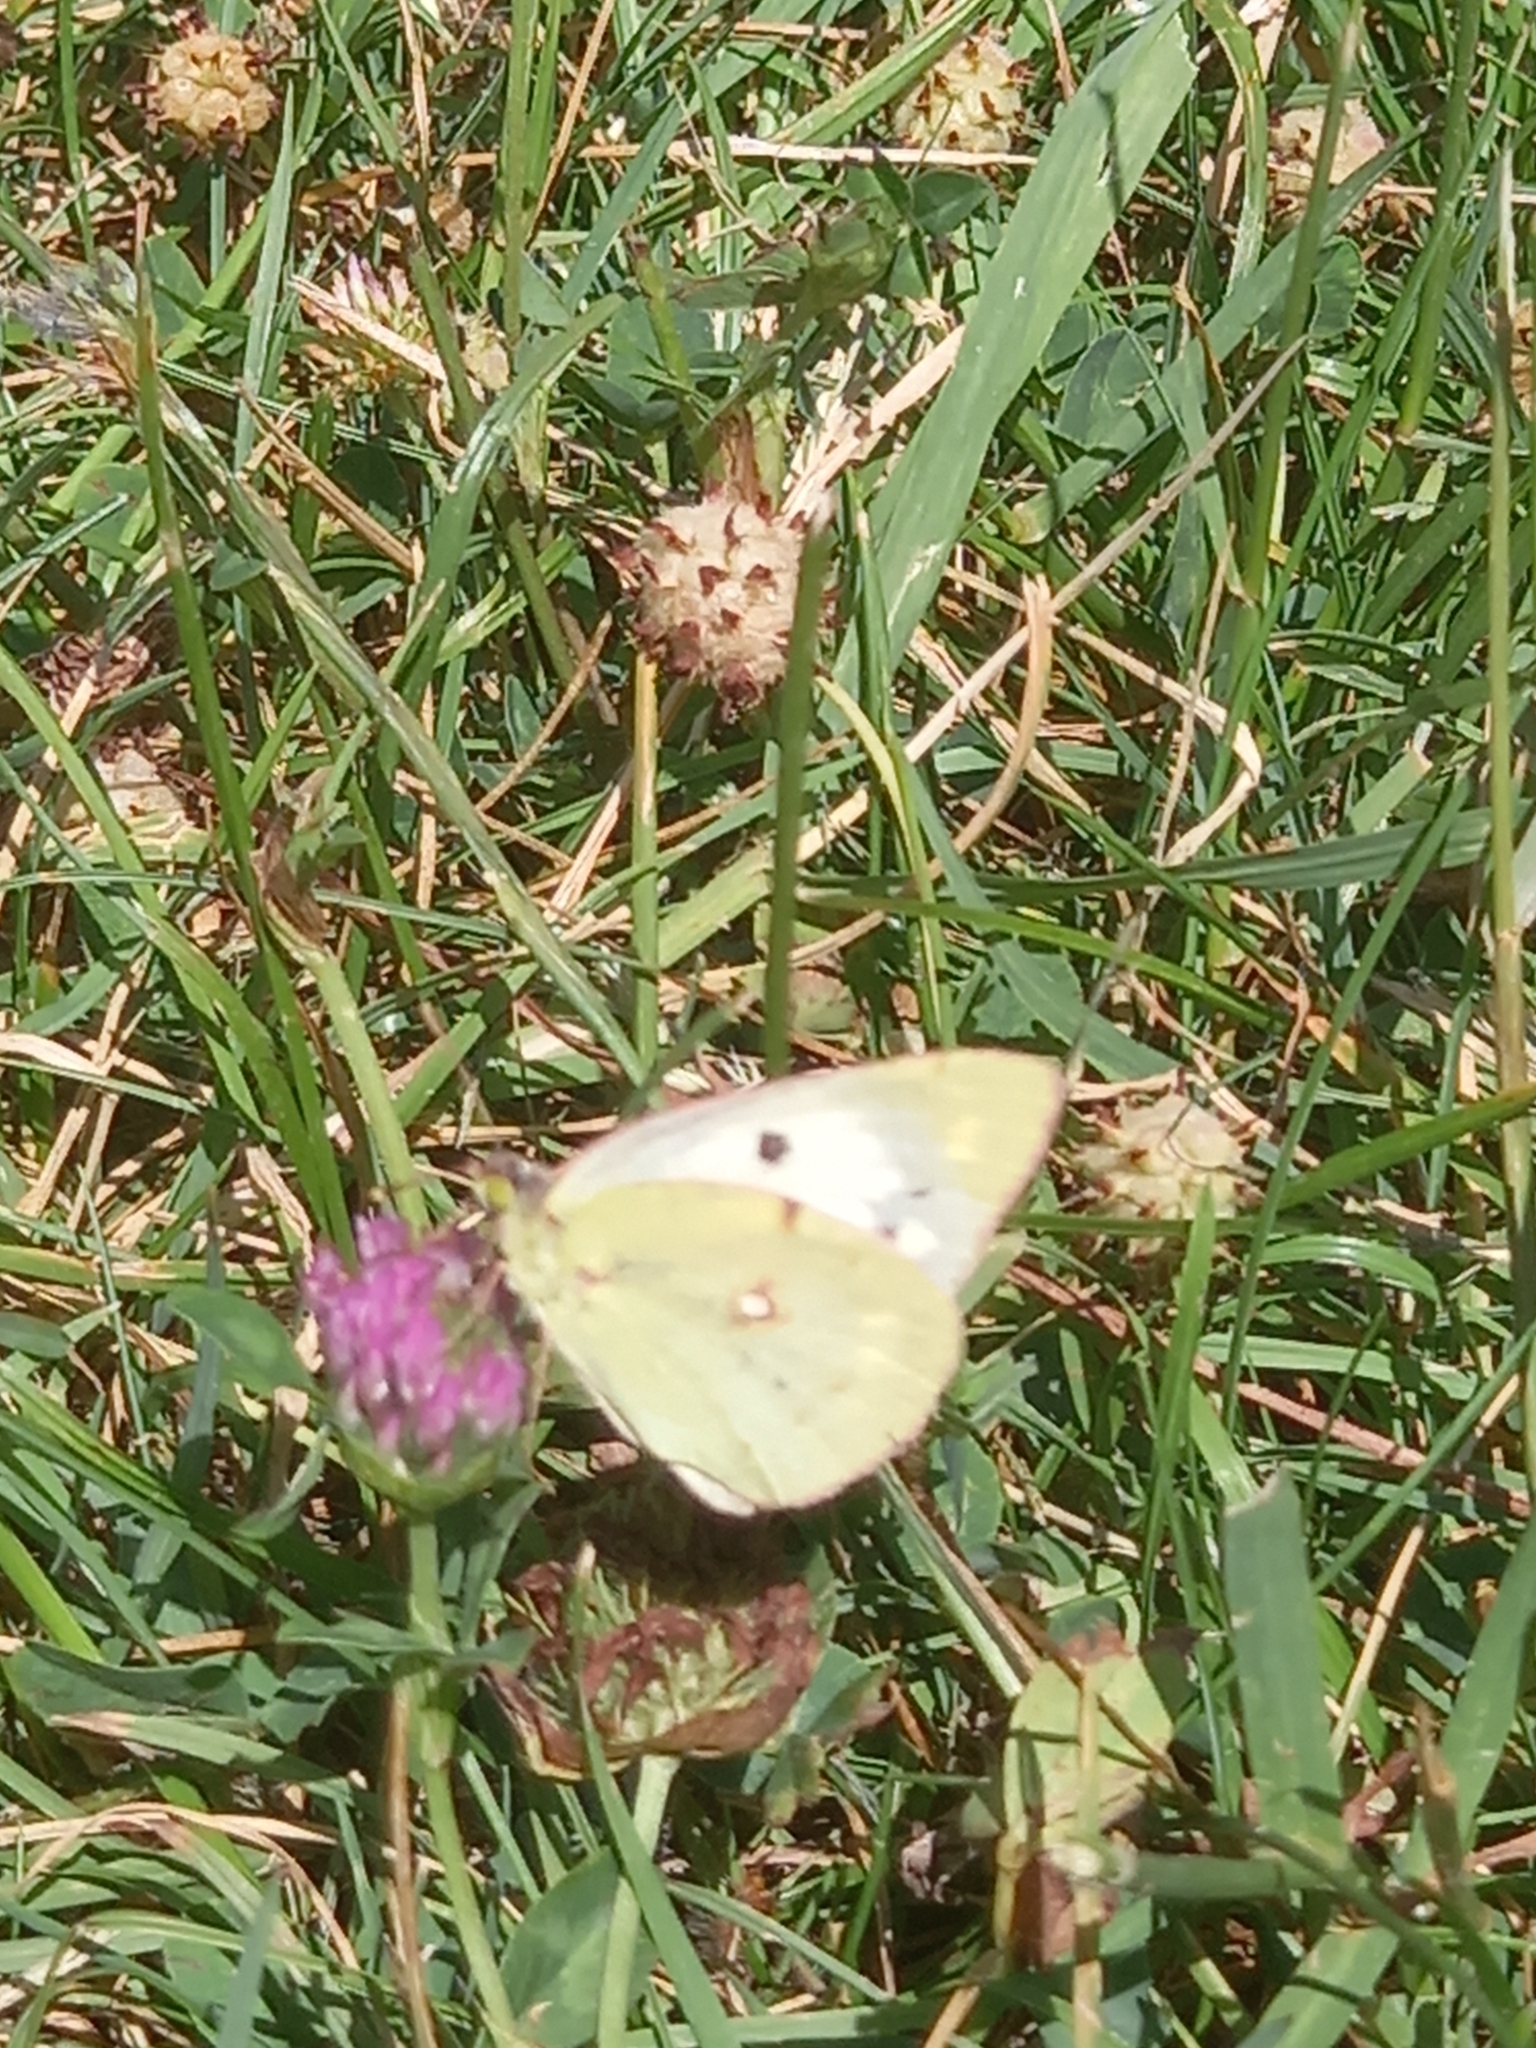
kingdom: Animalia
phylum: Arthropoda
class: Insecta
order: Lepidoptera
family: Pieridae
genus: Colias
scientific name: Colias croceus
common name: Clouded yellow
